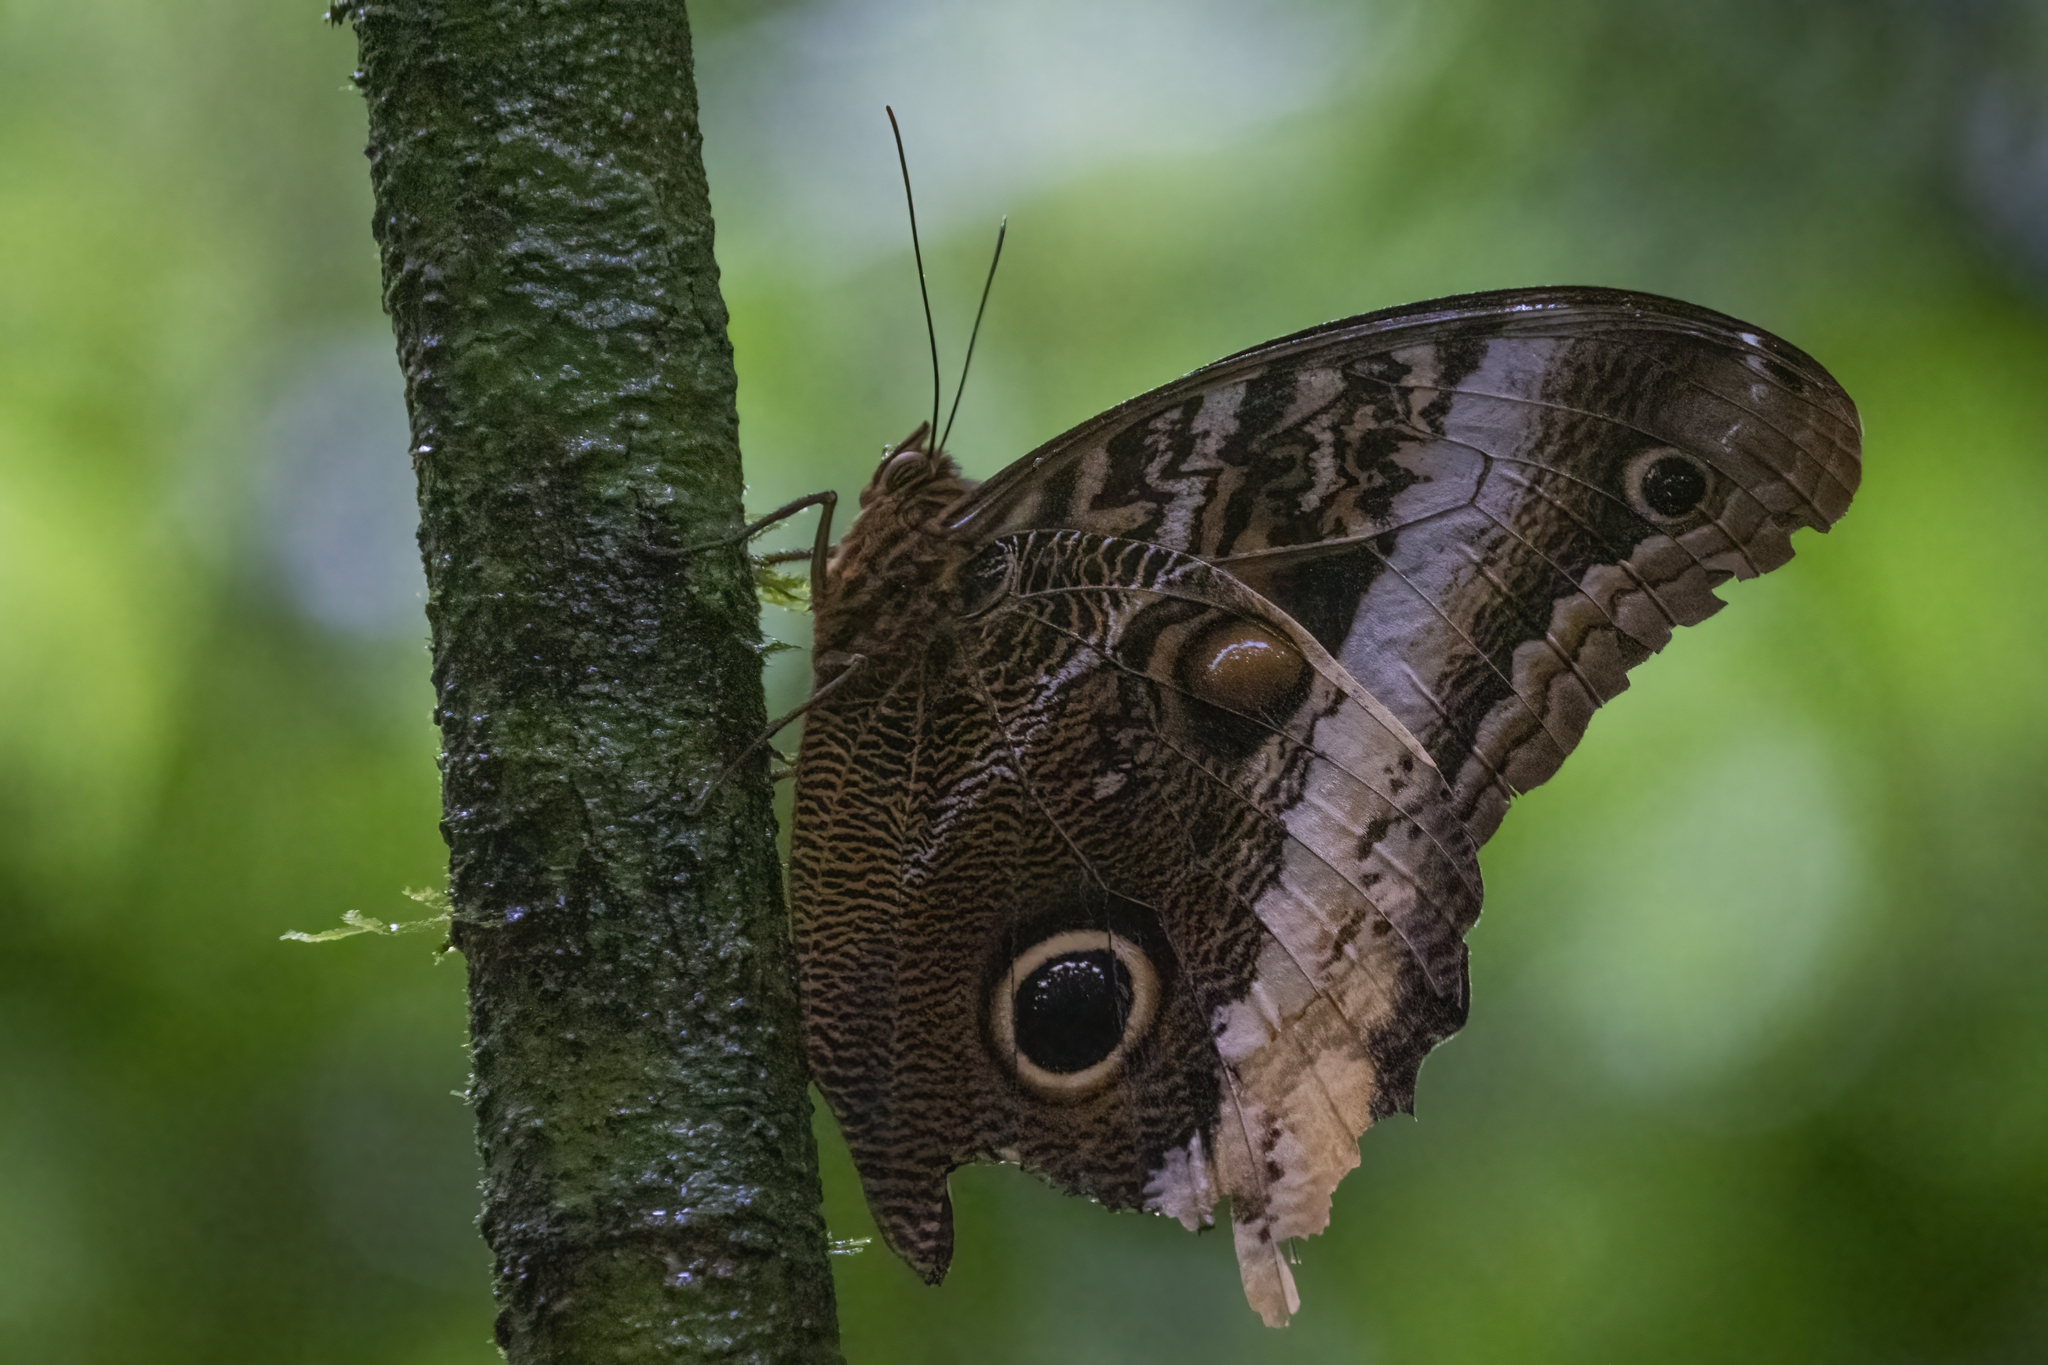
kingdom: Animalia
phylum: Arthropoda
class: Insecta
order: Lepidoptera
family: Nymphalidae
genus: Caligo
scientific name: Caligo atreus
